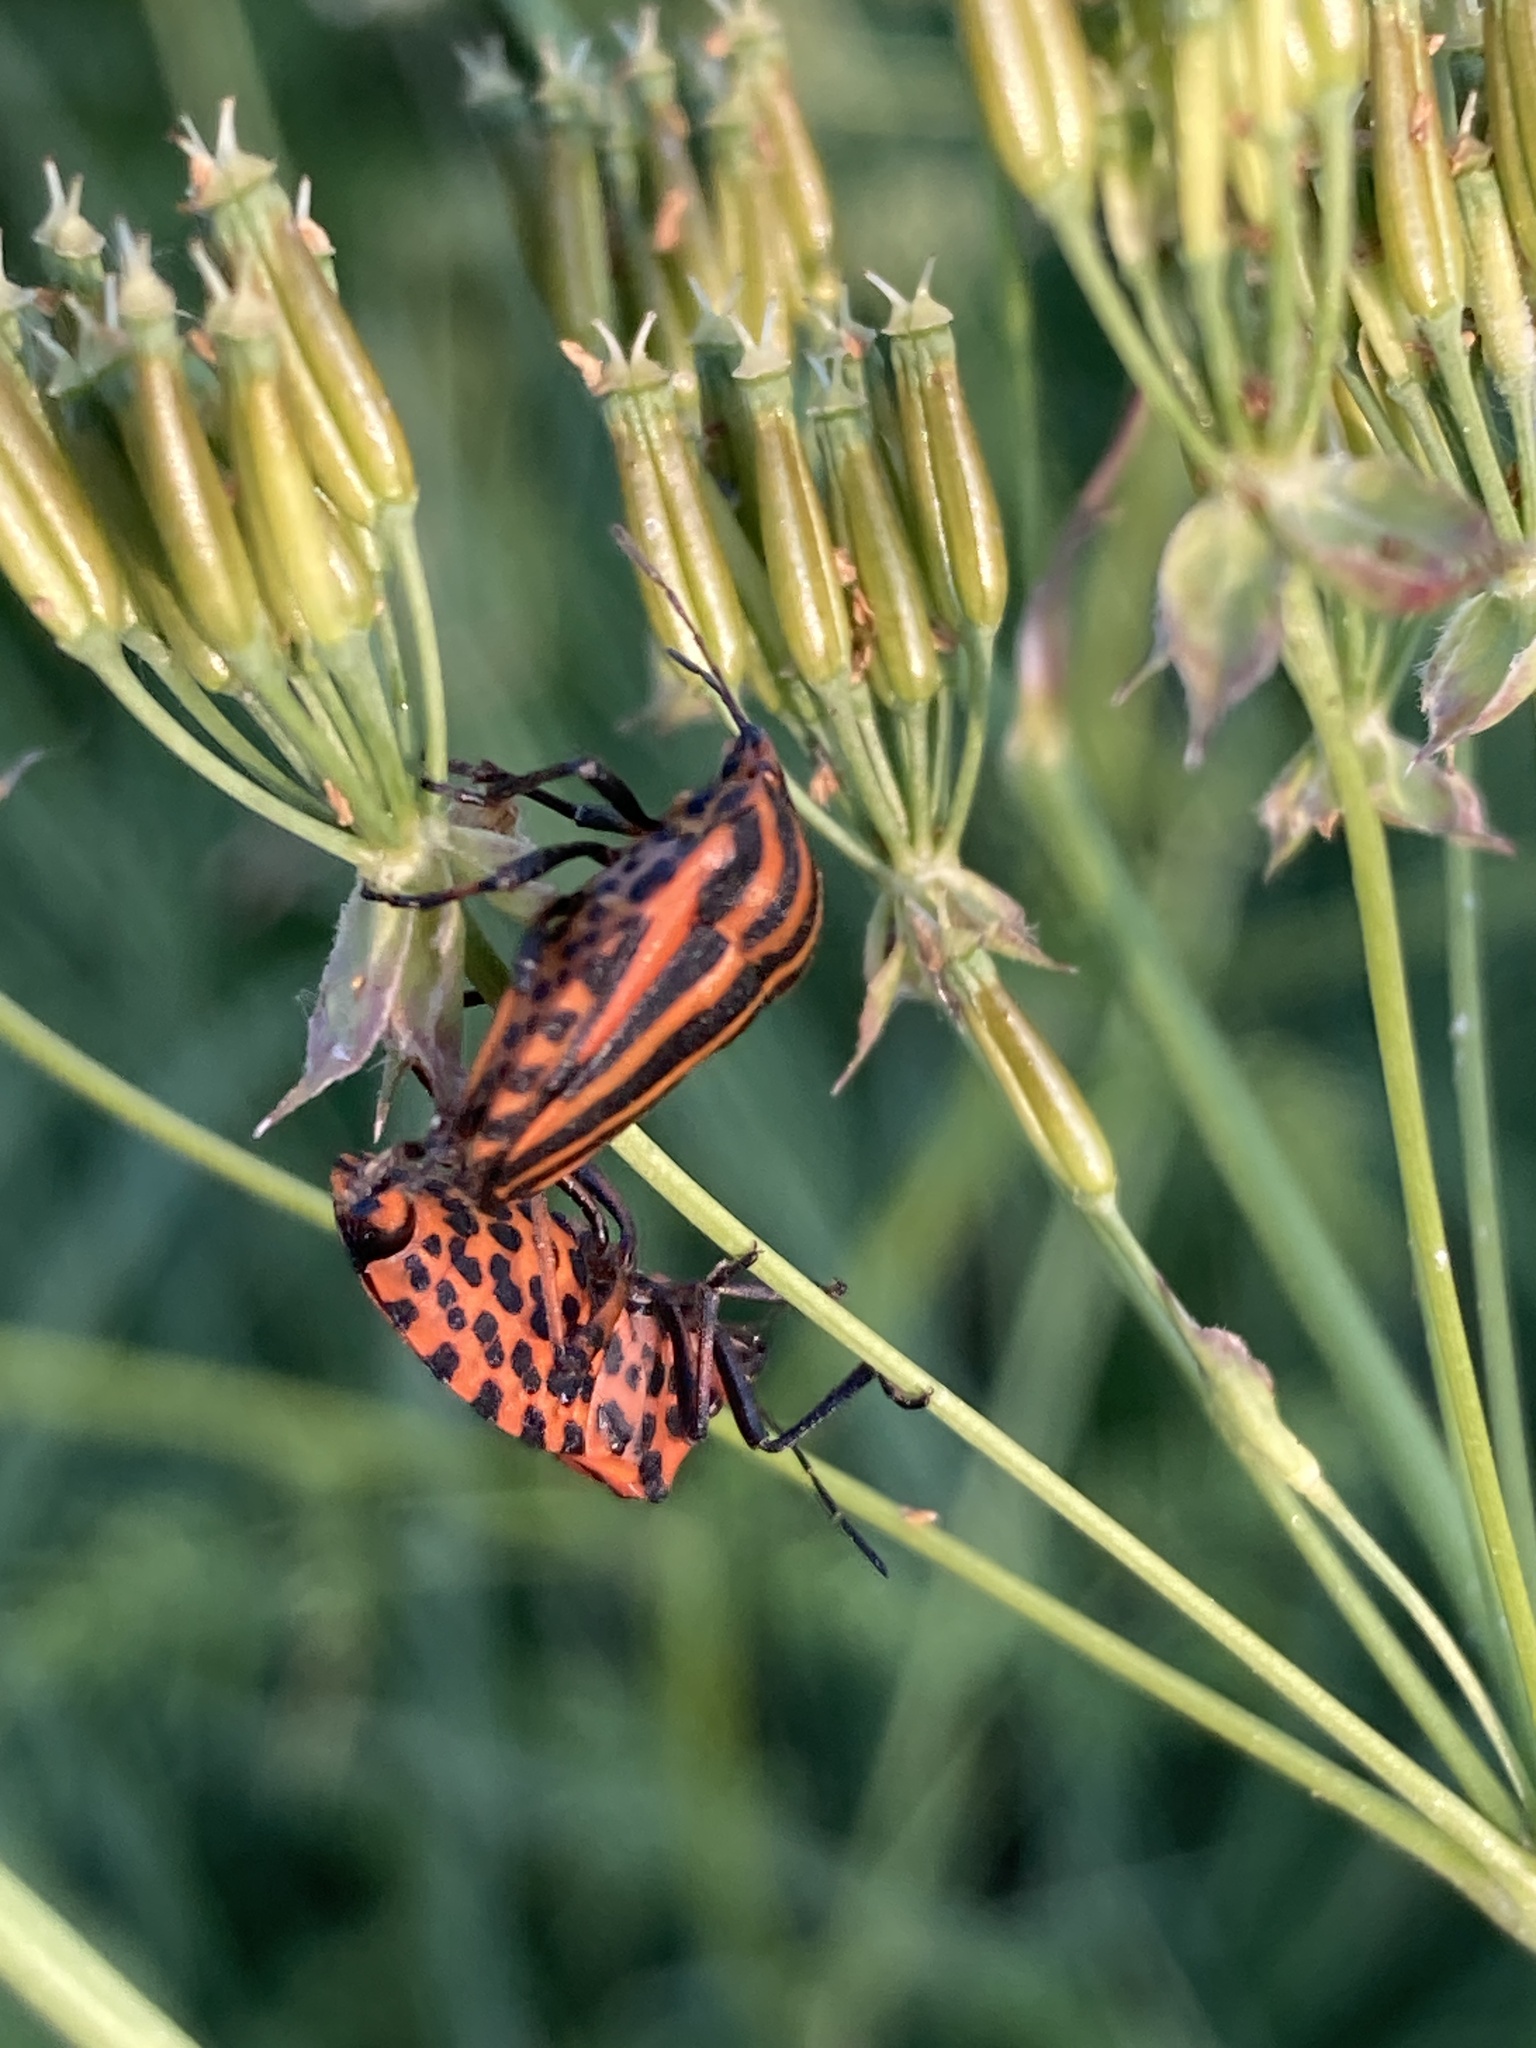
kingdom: Animalia
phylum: Arthropoda
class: Insecta
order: Hemiptera
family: Pentatomidae
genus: Graphosoma
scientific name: Graphosoma italicum
